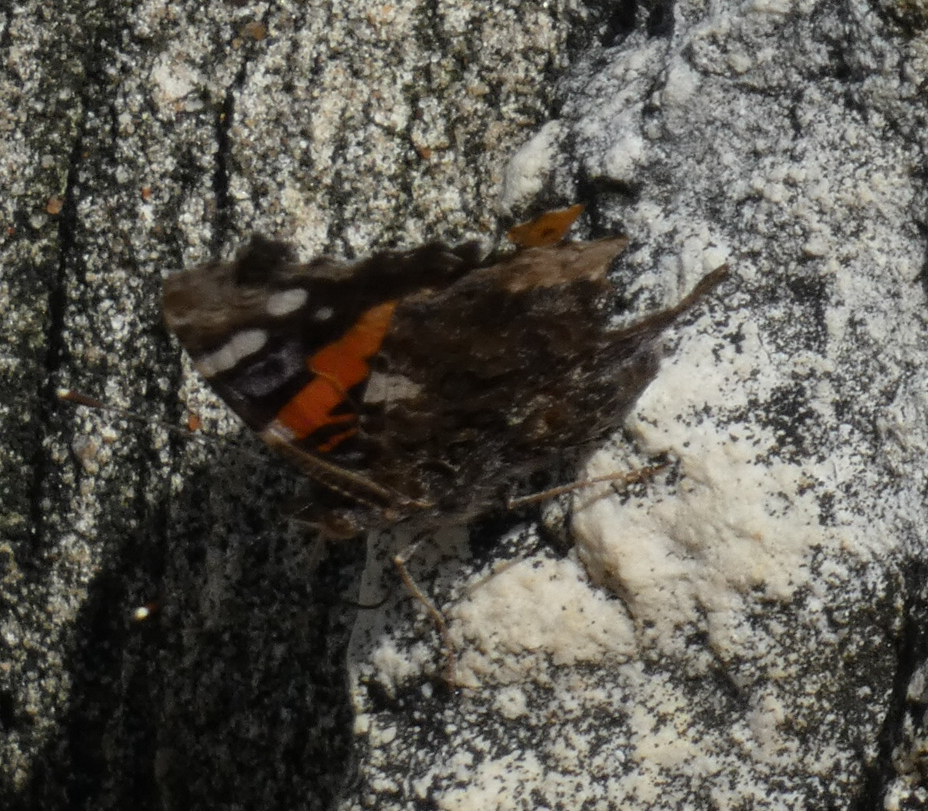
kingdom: Animalia
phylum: Arthropoda
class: Insecta
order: Lepidoptera
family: Nymphalidae
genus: Vanessa
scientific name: Vanessa atalanta
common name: Red admiral
